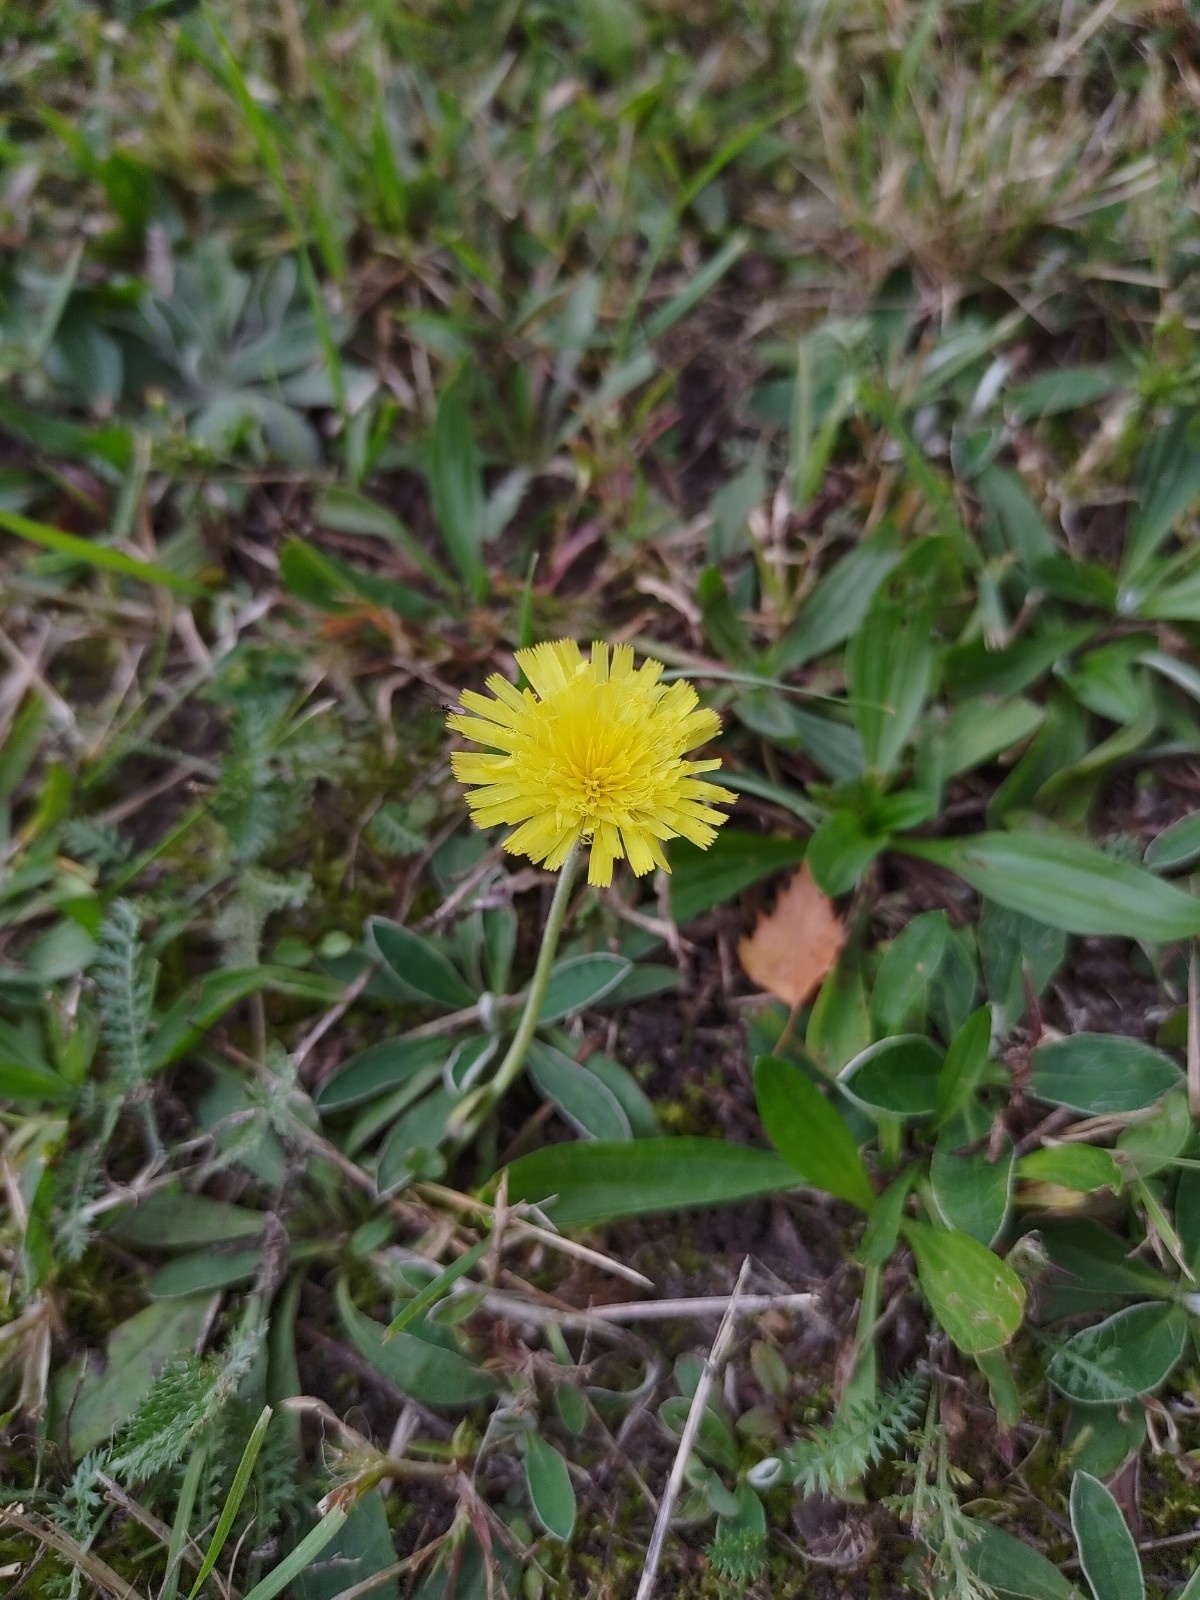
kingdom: Plantae
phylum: Tracheophyta
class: Magnoliopsida
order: Asterales
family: Asteraceae
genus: Pilosella
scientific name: Pilosella officinarum
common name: Mouse-ear hawkweed
